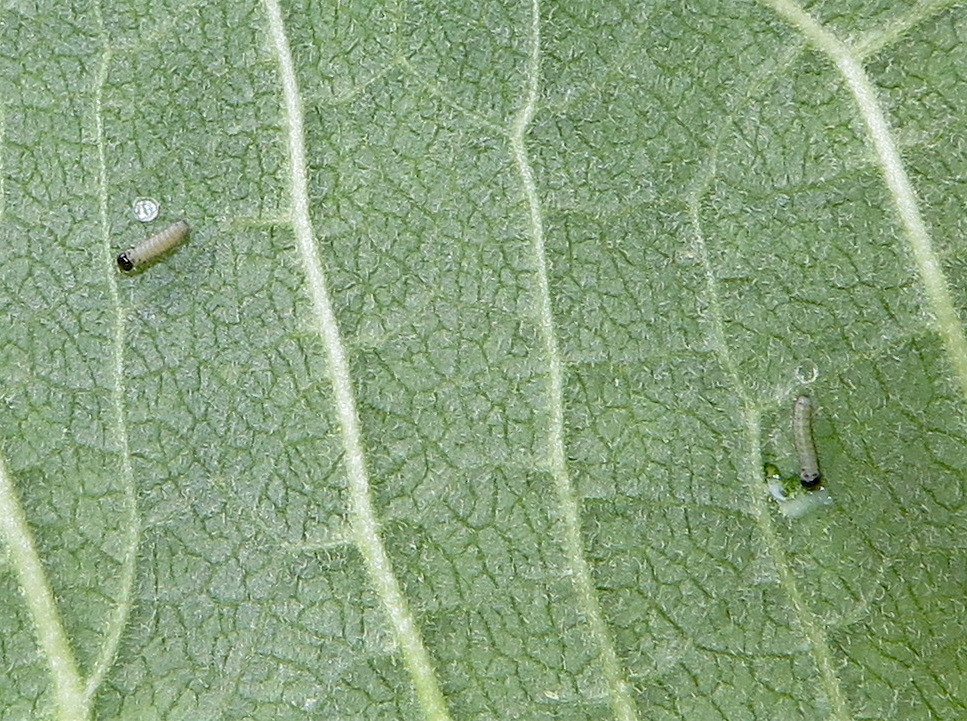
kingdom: Animalia
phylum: Arthropoda
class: Insecta
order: Lepidoptera
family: Nymphalidae
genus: Danaus
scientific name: Danaus plexippus
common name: Monarch
